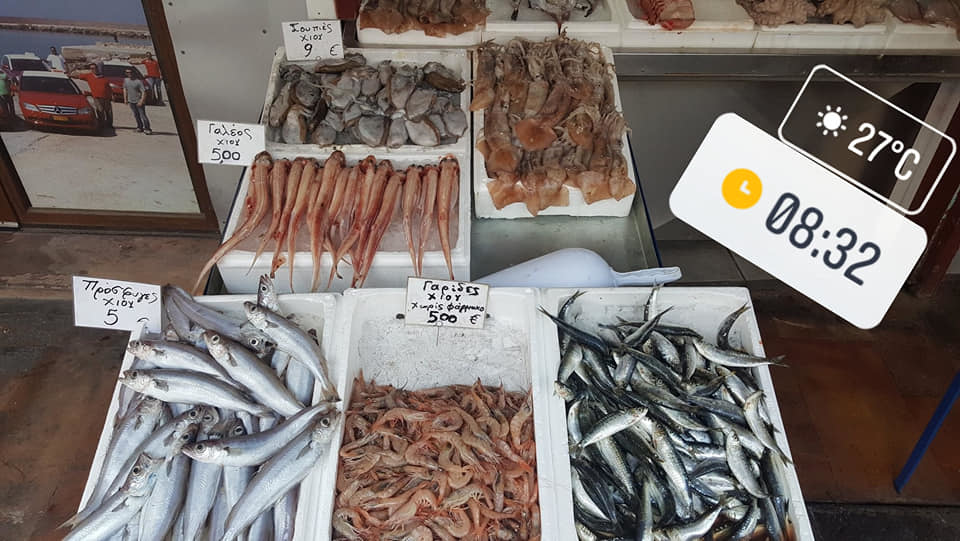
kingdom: Animalia
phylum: Chordata
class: Elasmobranchii
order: Carcharhiniformes
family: Scyliorhinidae
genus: Scyliorhinus
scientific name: Scyliorhinus canicula
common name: Lesser spotted dogfish
